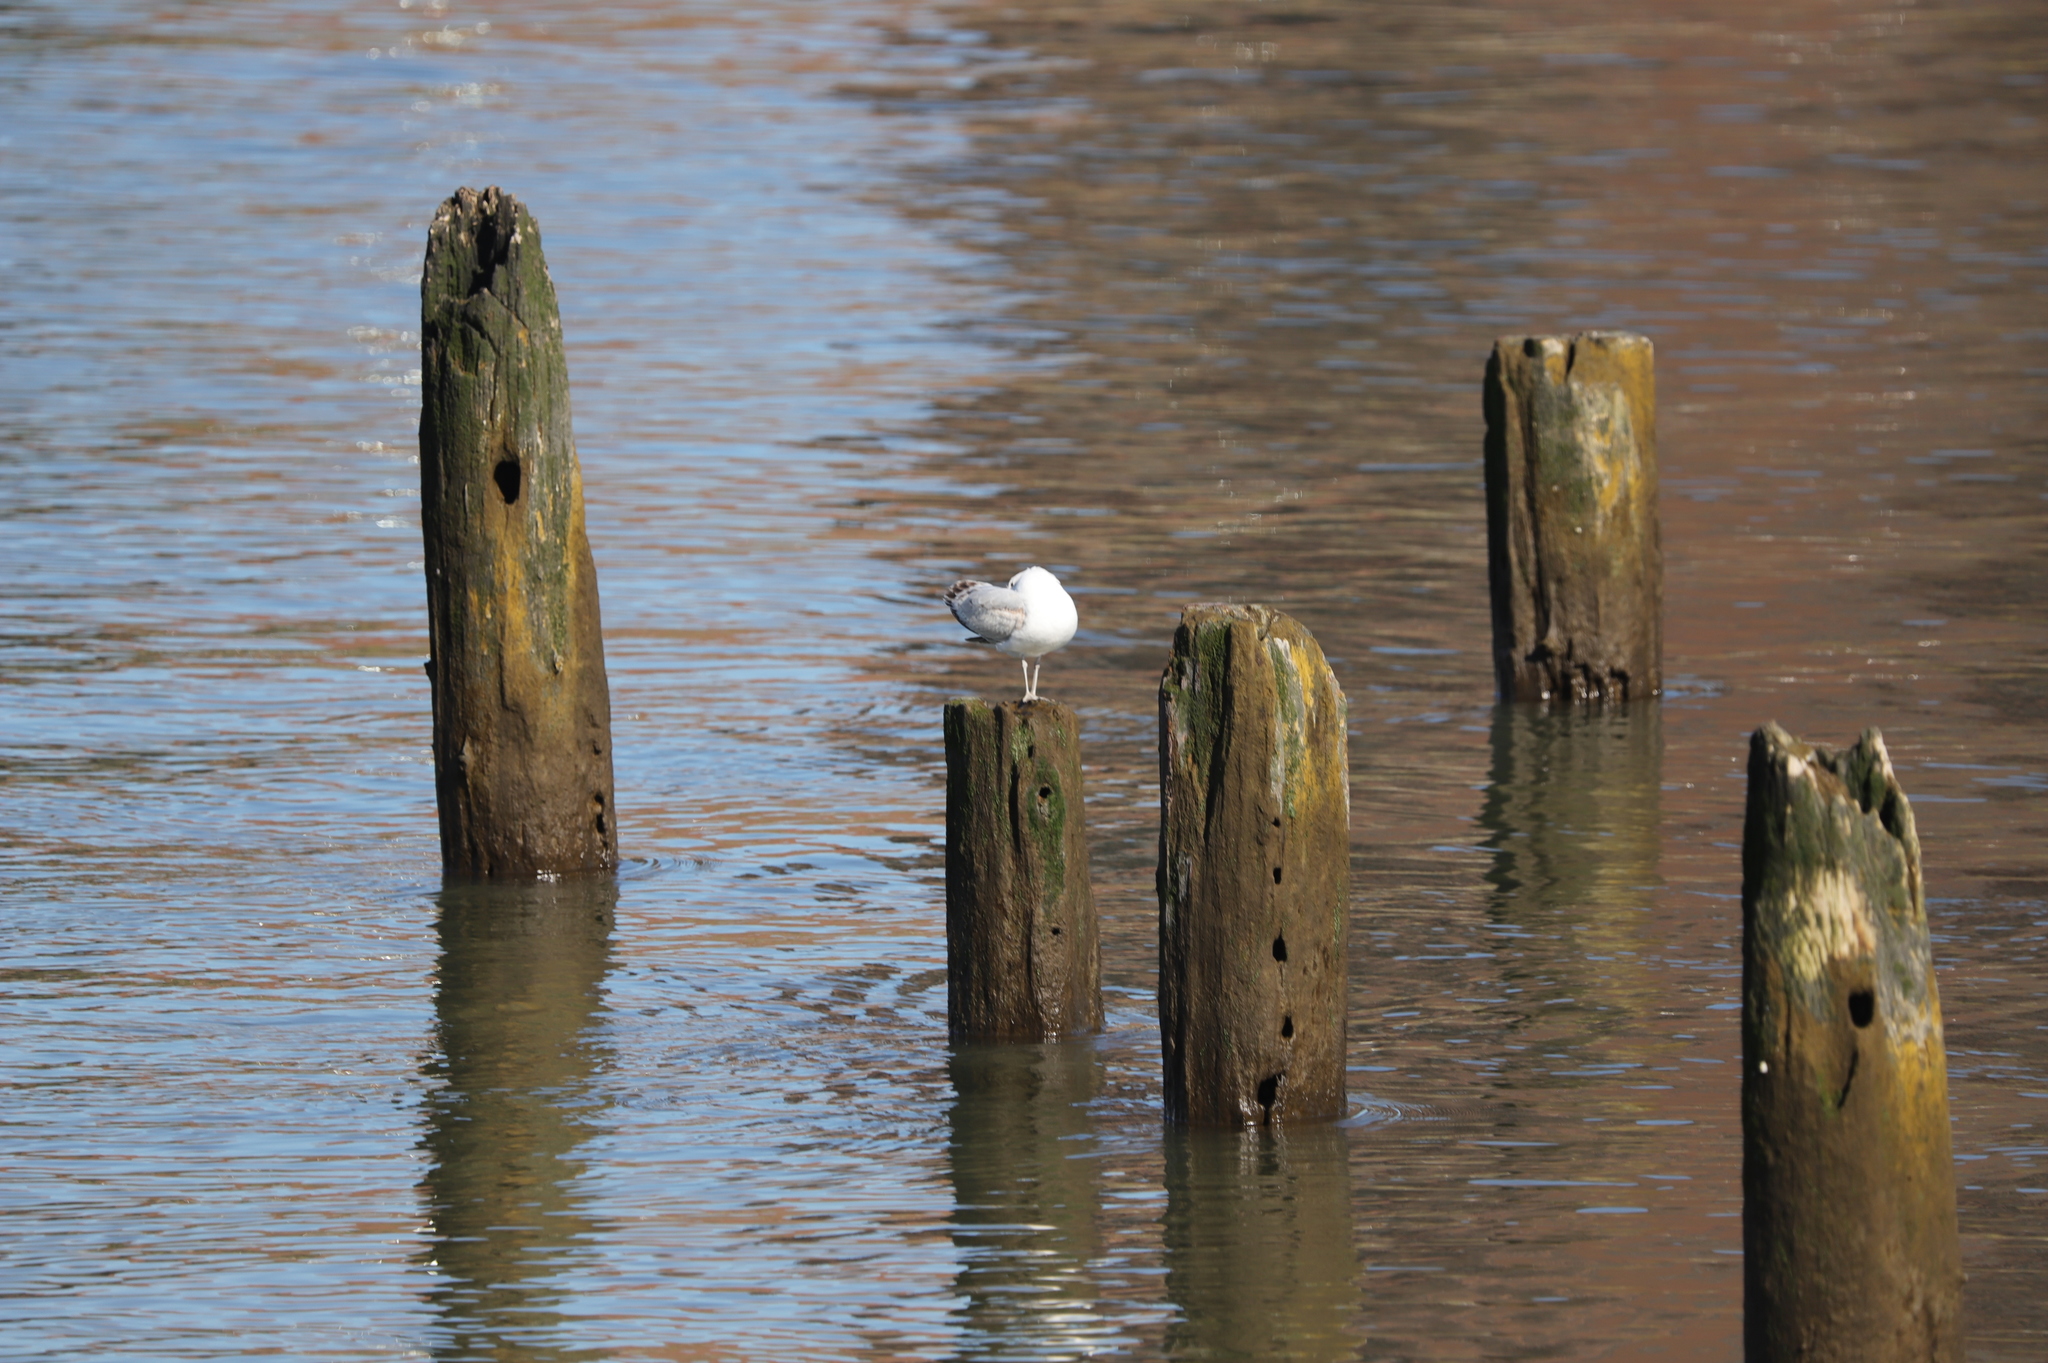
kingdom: Animalia
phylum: Chordata
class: Aves
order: Charadriiformes
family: Laridae
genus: Larus
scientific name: Larus delawarensis
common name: Ring-billed gull
